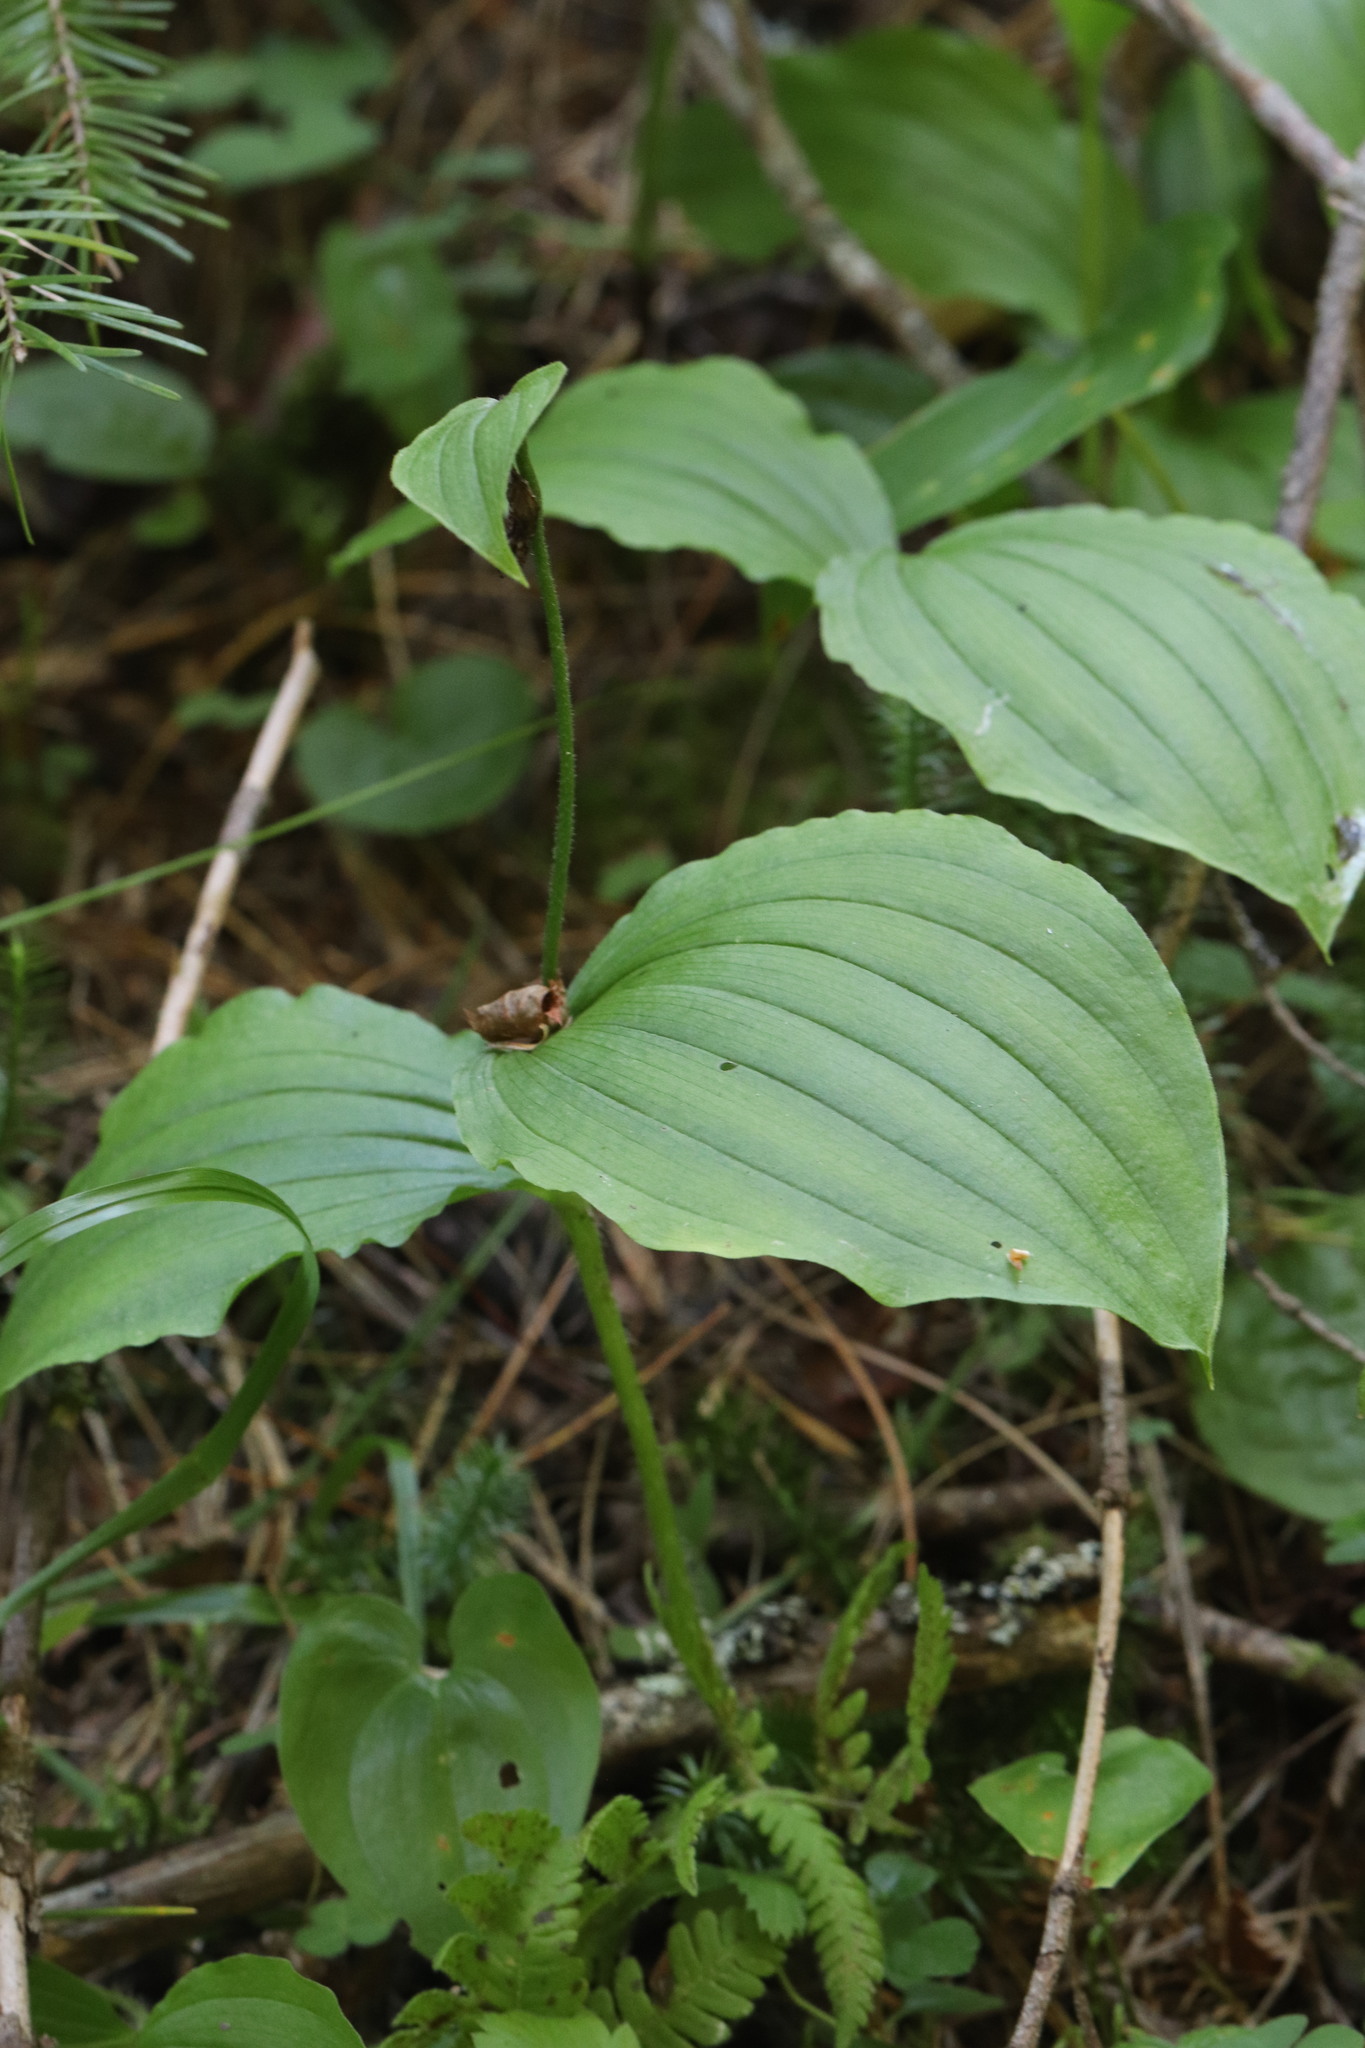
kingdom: Plantae
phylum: Tracheophyta
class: Liliopsida
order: Asparagales
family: Orchidaceae
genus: Cypripedium
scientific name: Cypripedium guttatum
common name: Pink lady slipper
